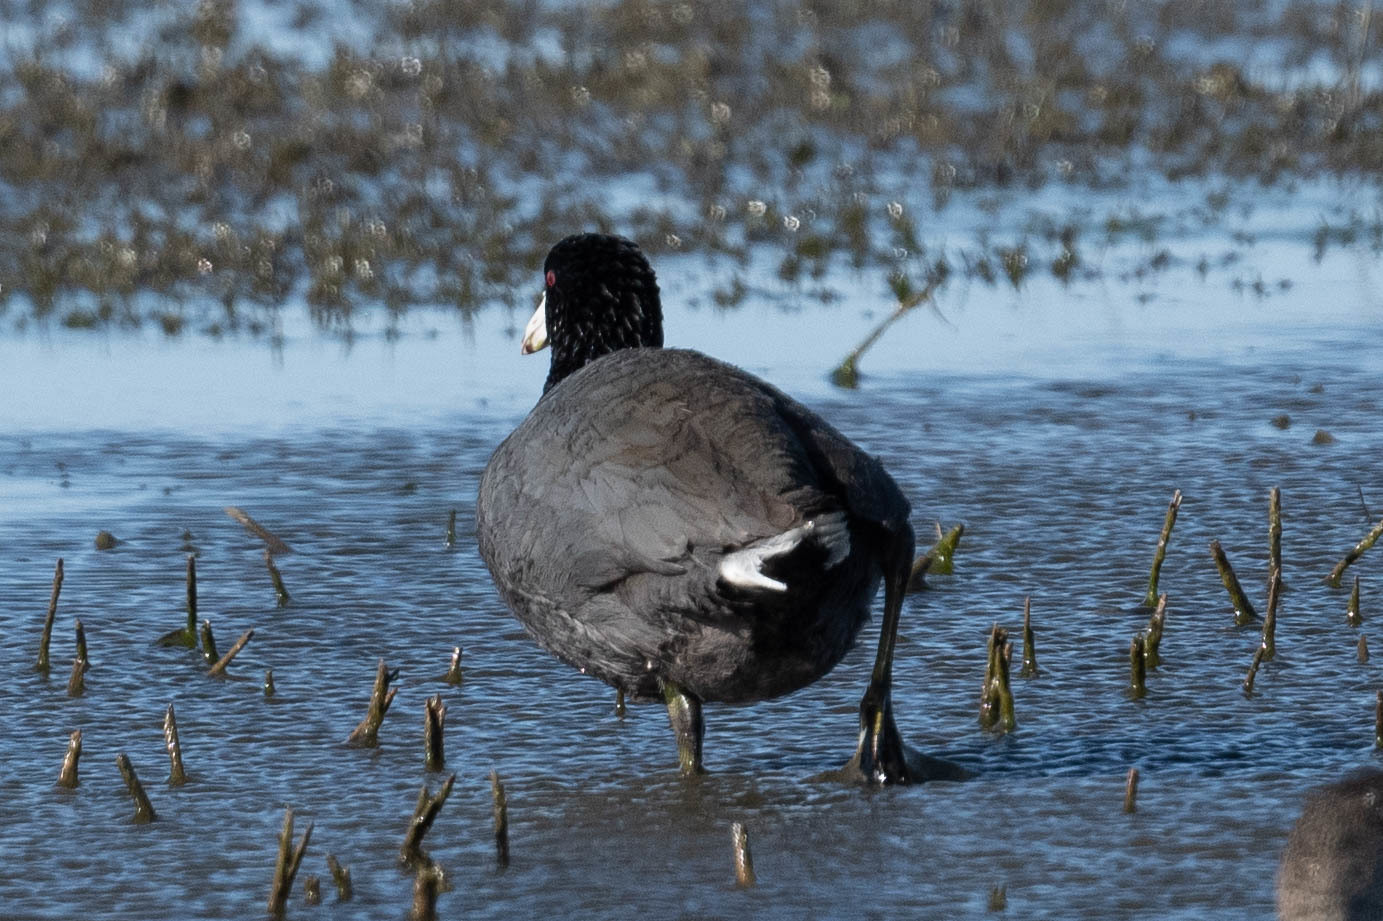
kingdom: Animalia
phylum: Chordata
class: Aves
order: Gruiformes
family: Rallidae
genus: Fulica
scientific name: Fulica americana
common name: American coot
